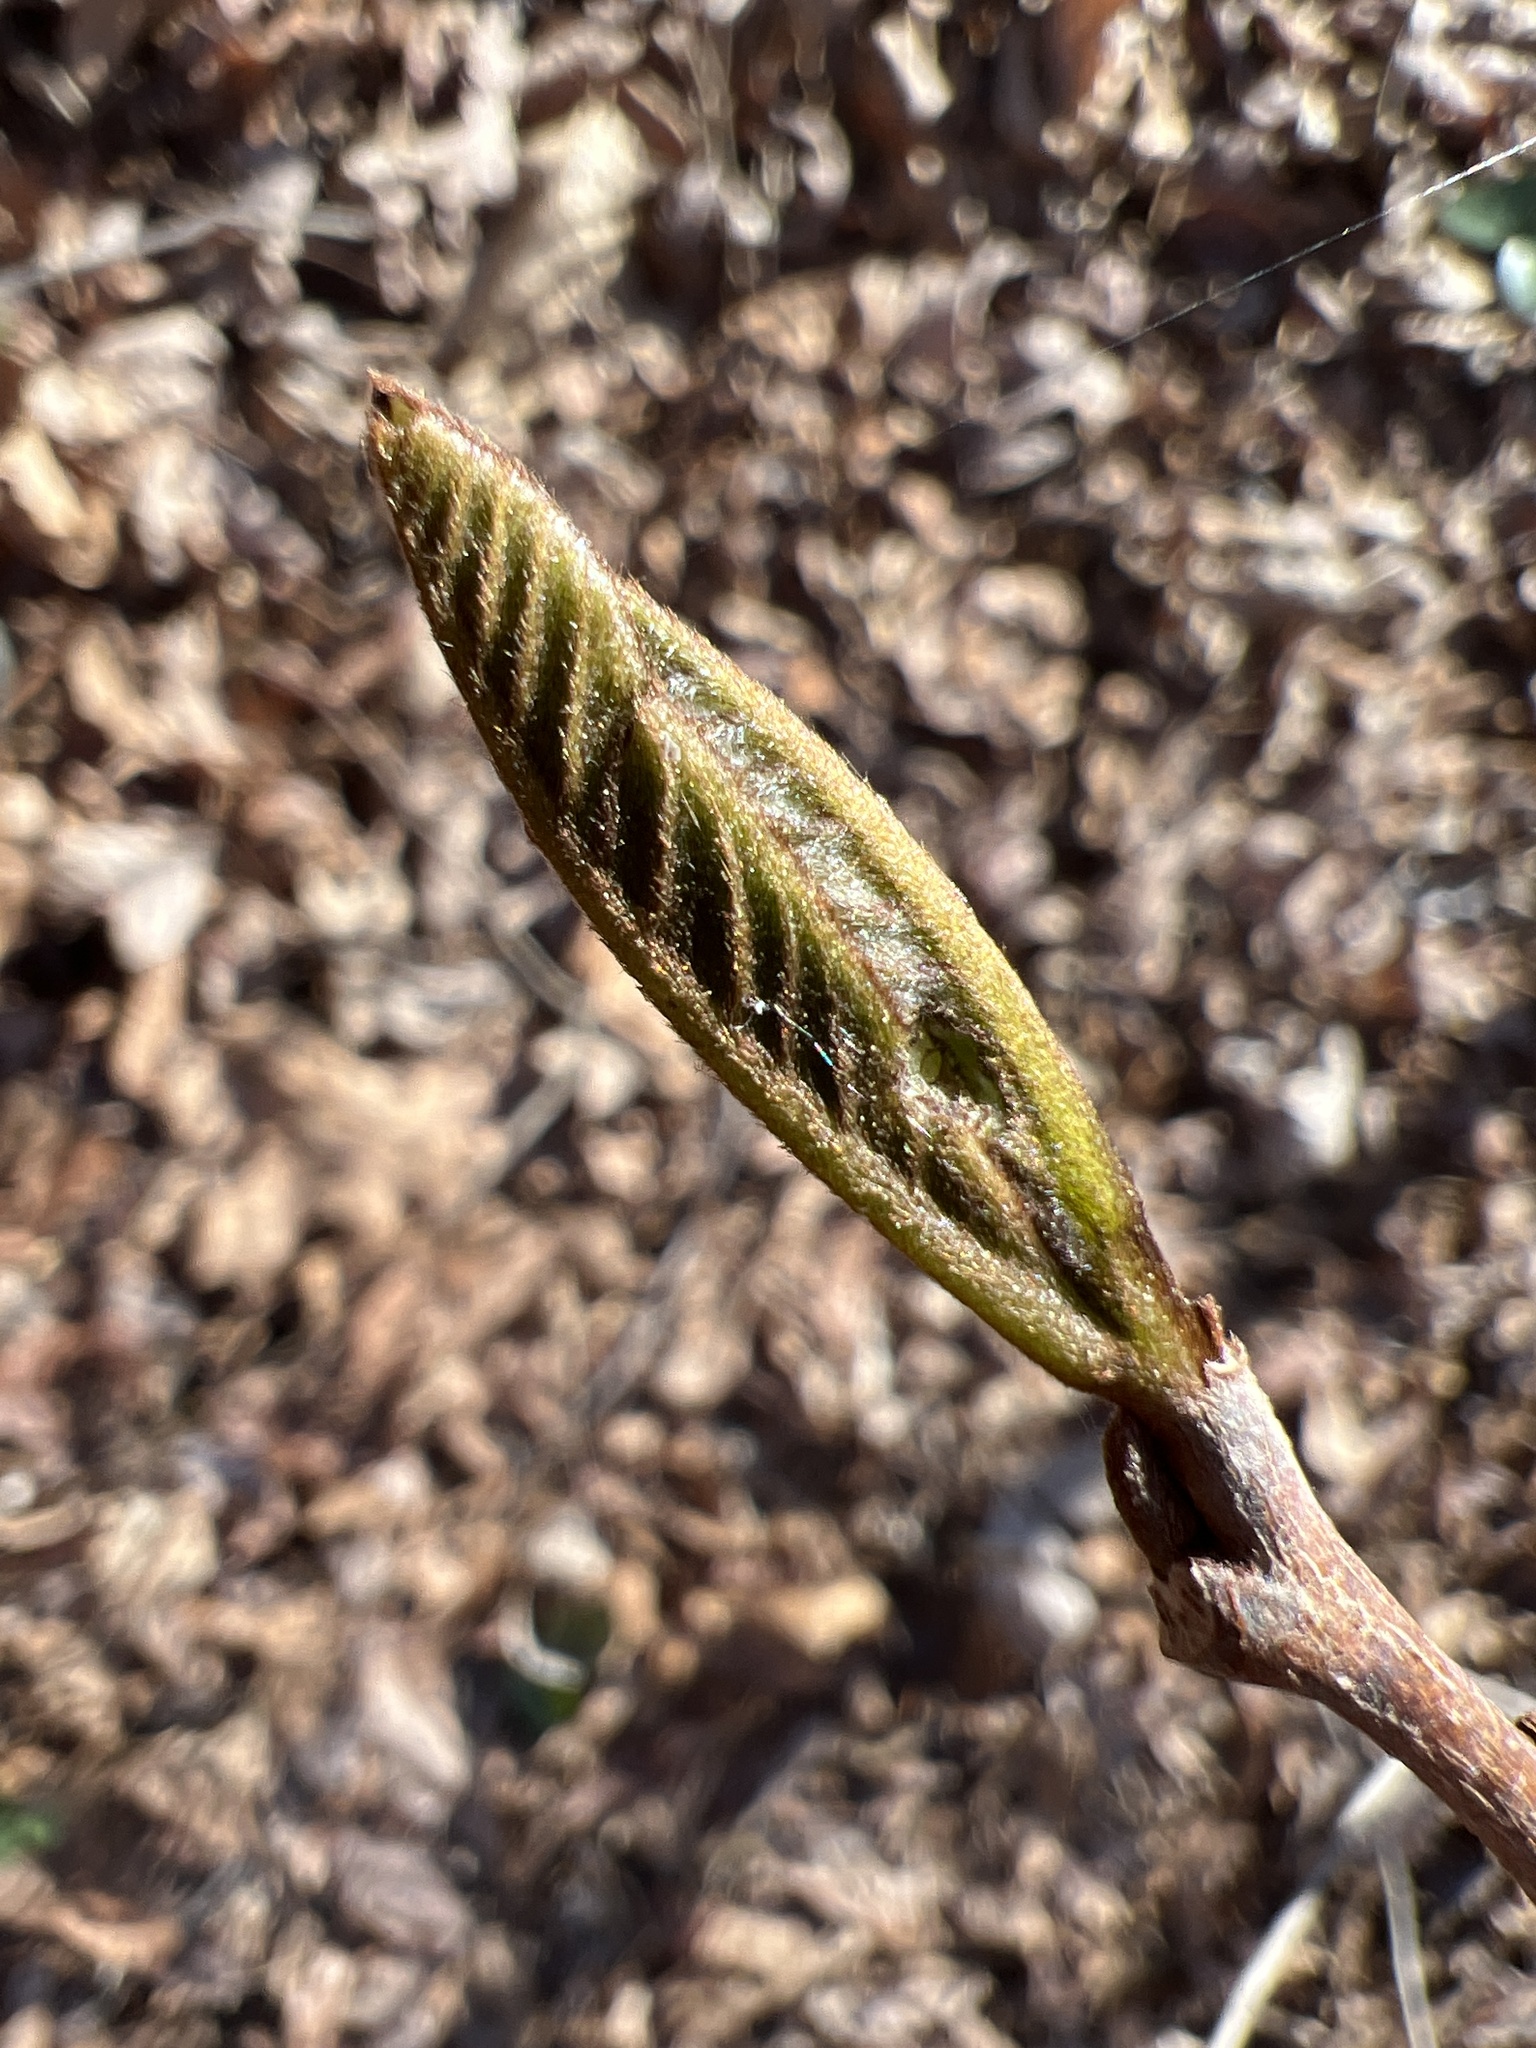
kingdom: Plantae
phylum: Tracheophyta
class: Magnoliopsida
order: Magnoliales
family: Annonaceae
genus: Asimina
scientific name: Asimina triloba
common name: Dog-banana
